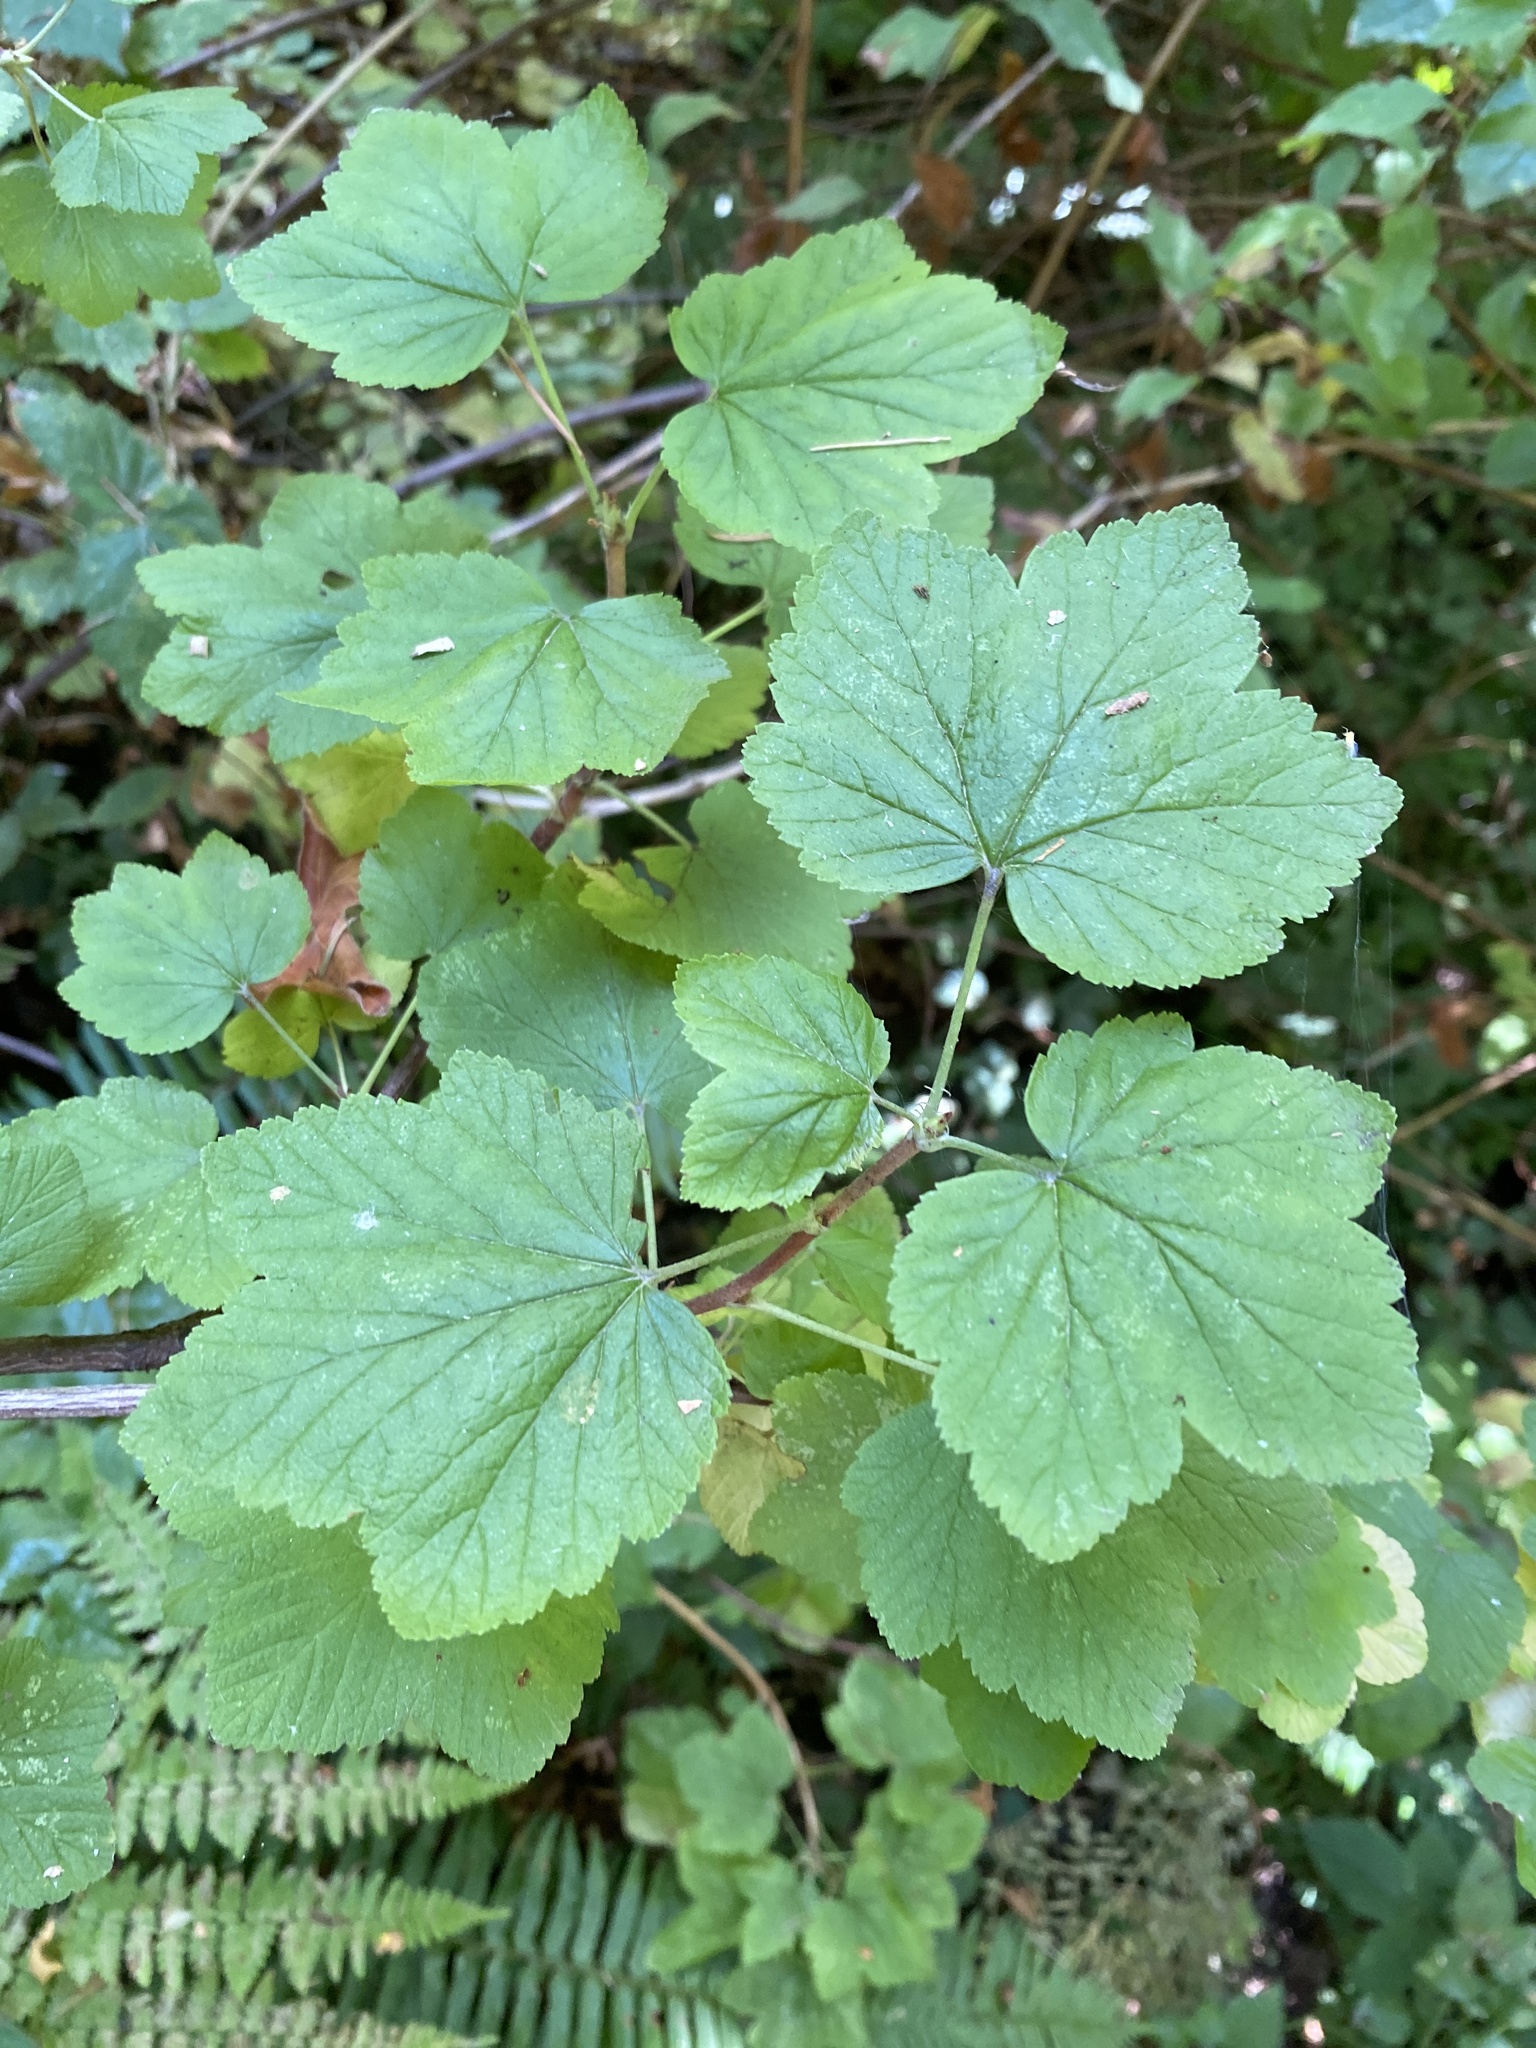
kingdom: Plantae
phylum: Tracheophyta
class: Magnoliopsida
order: Saxifragales
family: Grossulariaceae
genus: Ribes
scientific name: Ribes sanguineum
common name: Flowering currant
